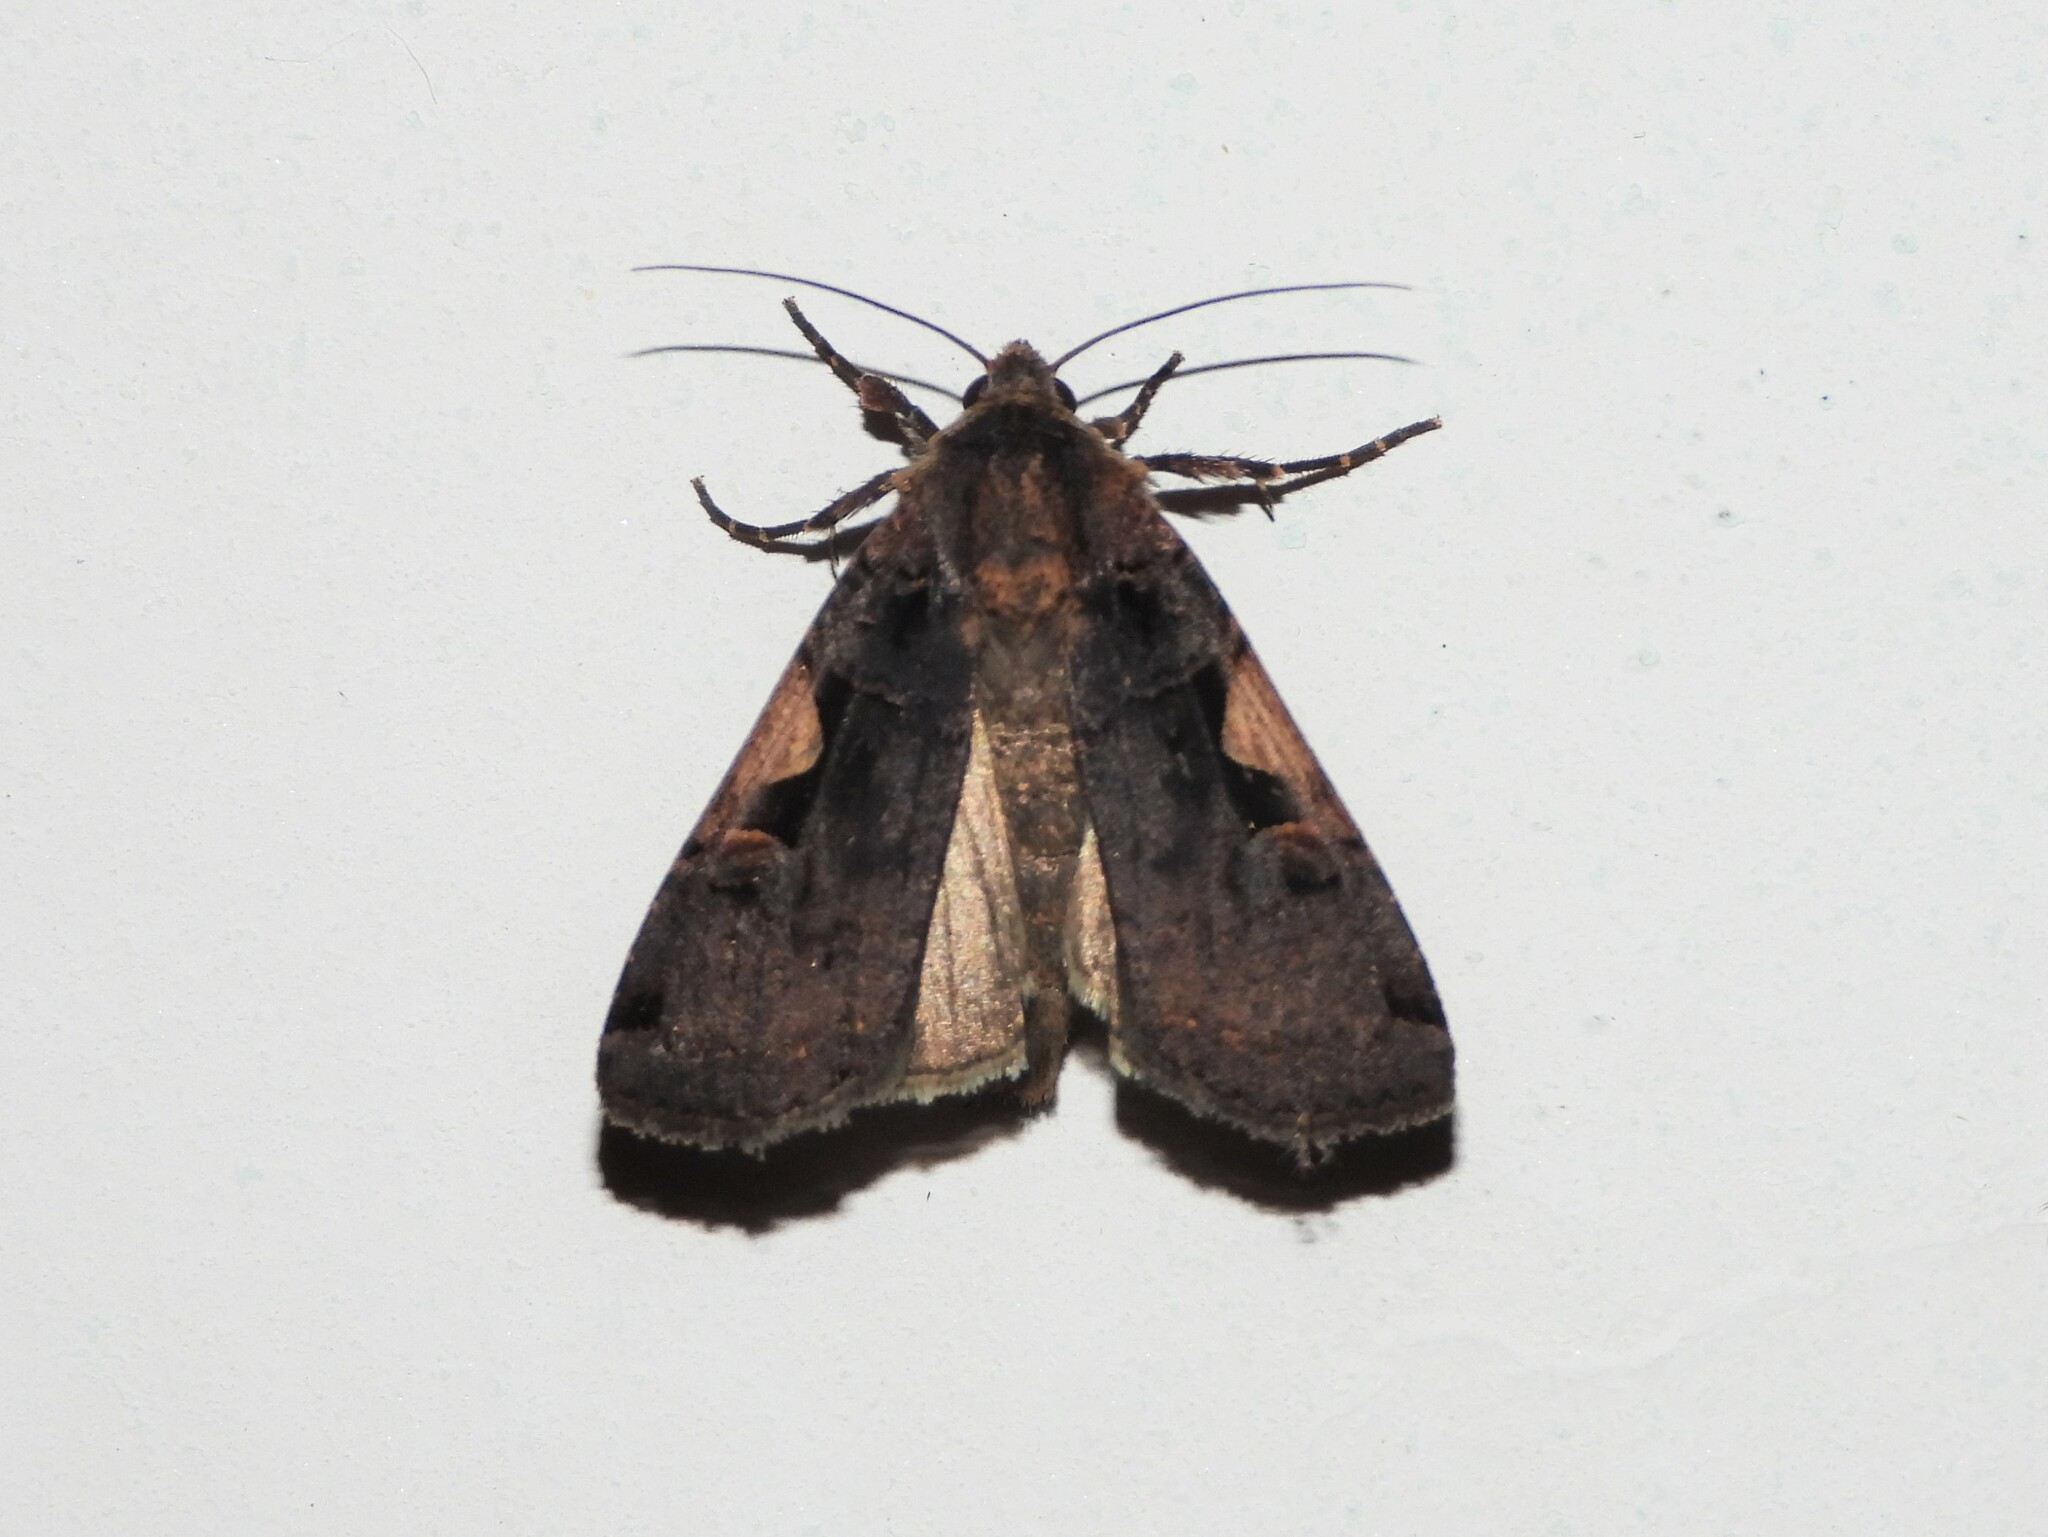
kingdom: Animalia
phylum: Arthropoda
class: Insecta
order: Lepidoptera
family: Noctuidae
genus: Xestia
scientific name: Xestia c-nigrum
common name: Setaceous hebrew character
